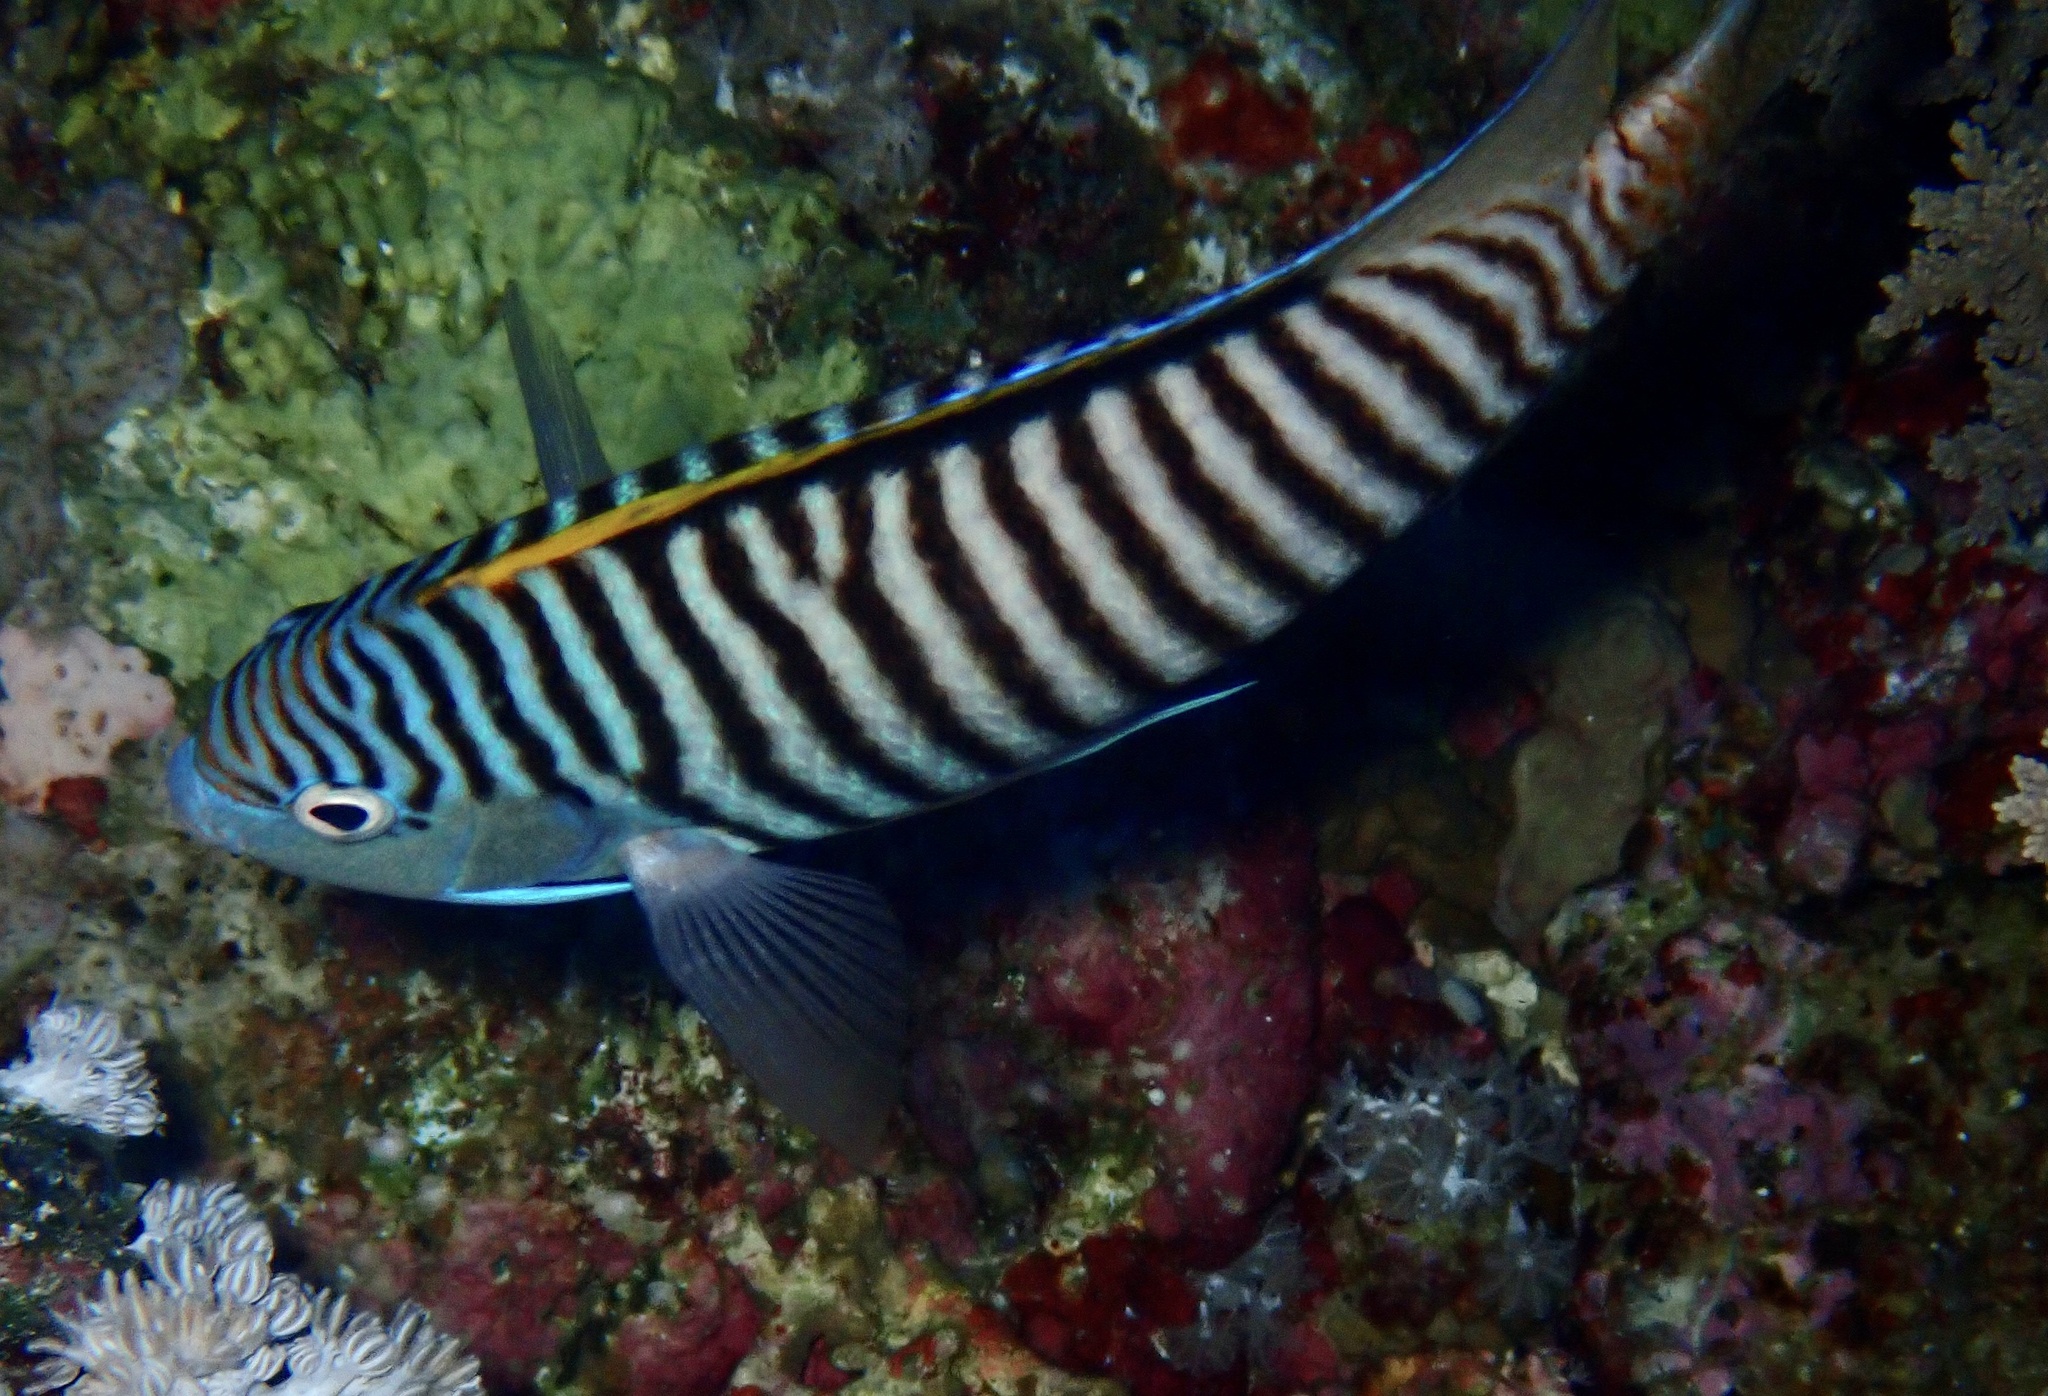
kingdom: Animalia
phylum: Chordata
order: Perciformes
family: Pomacanthidae
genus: Genicanthus
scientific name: Genicanthus caudovittatus
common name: Lyretail angelfish
